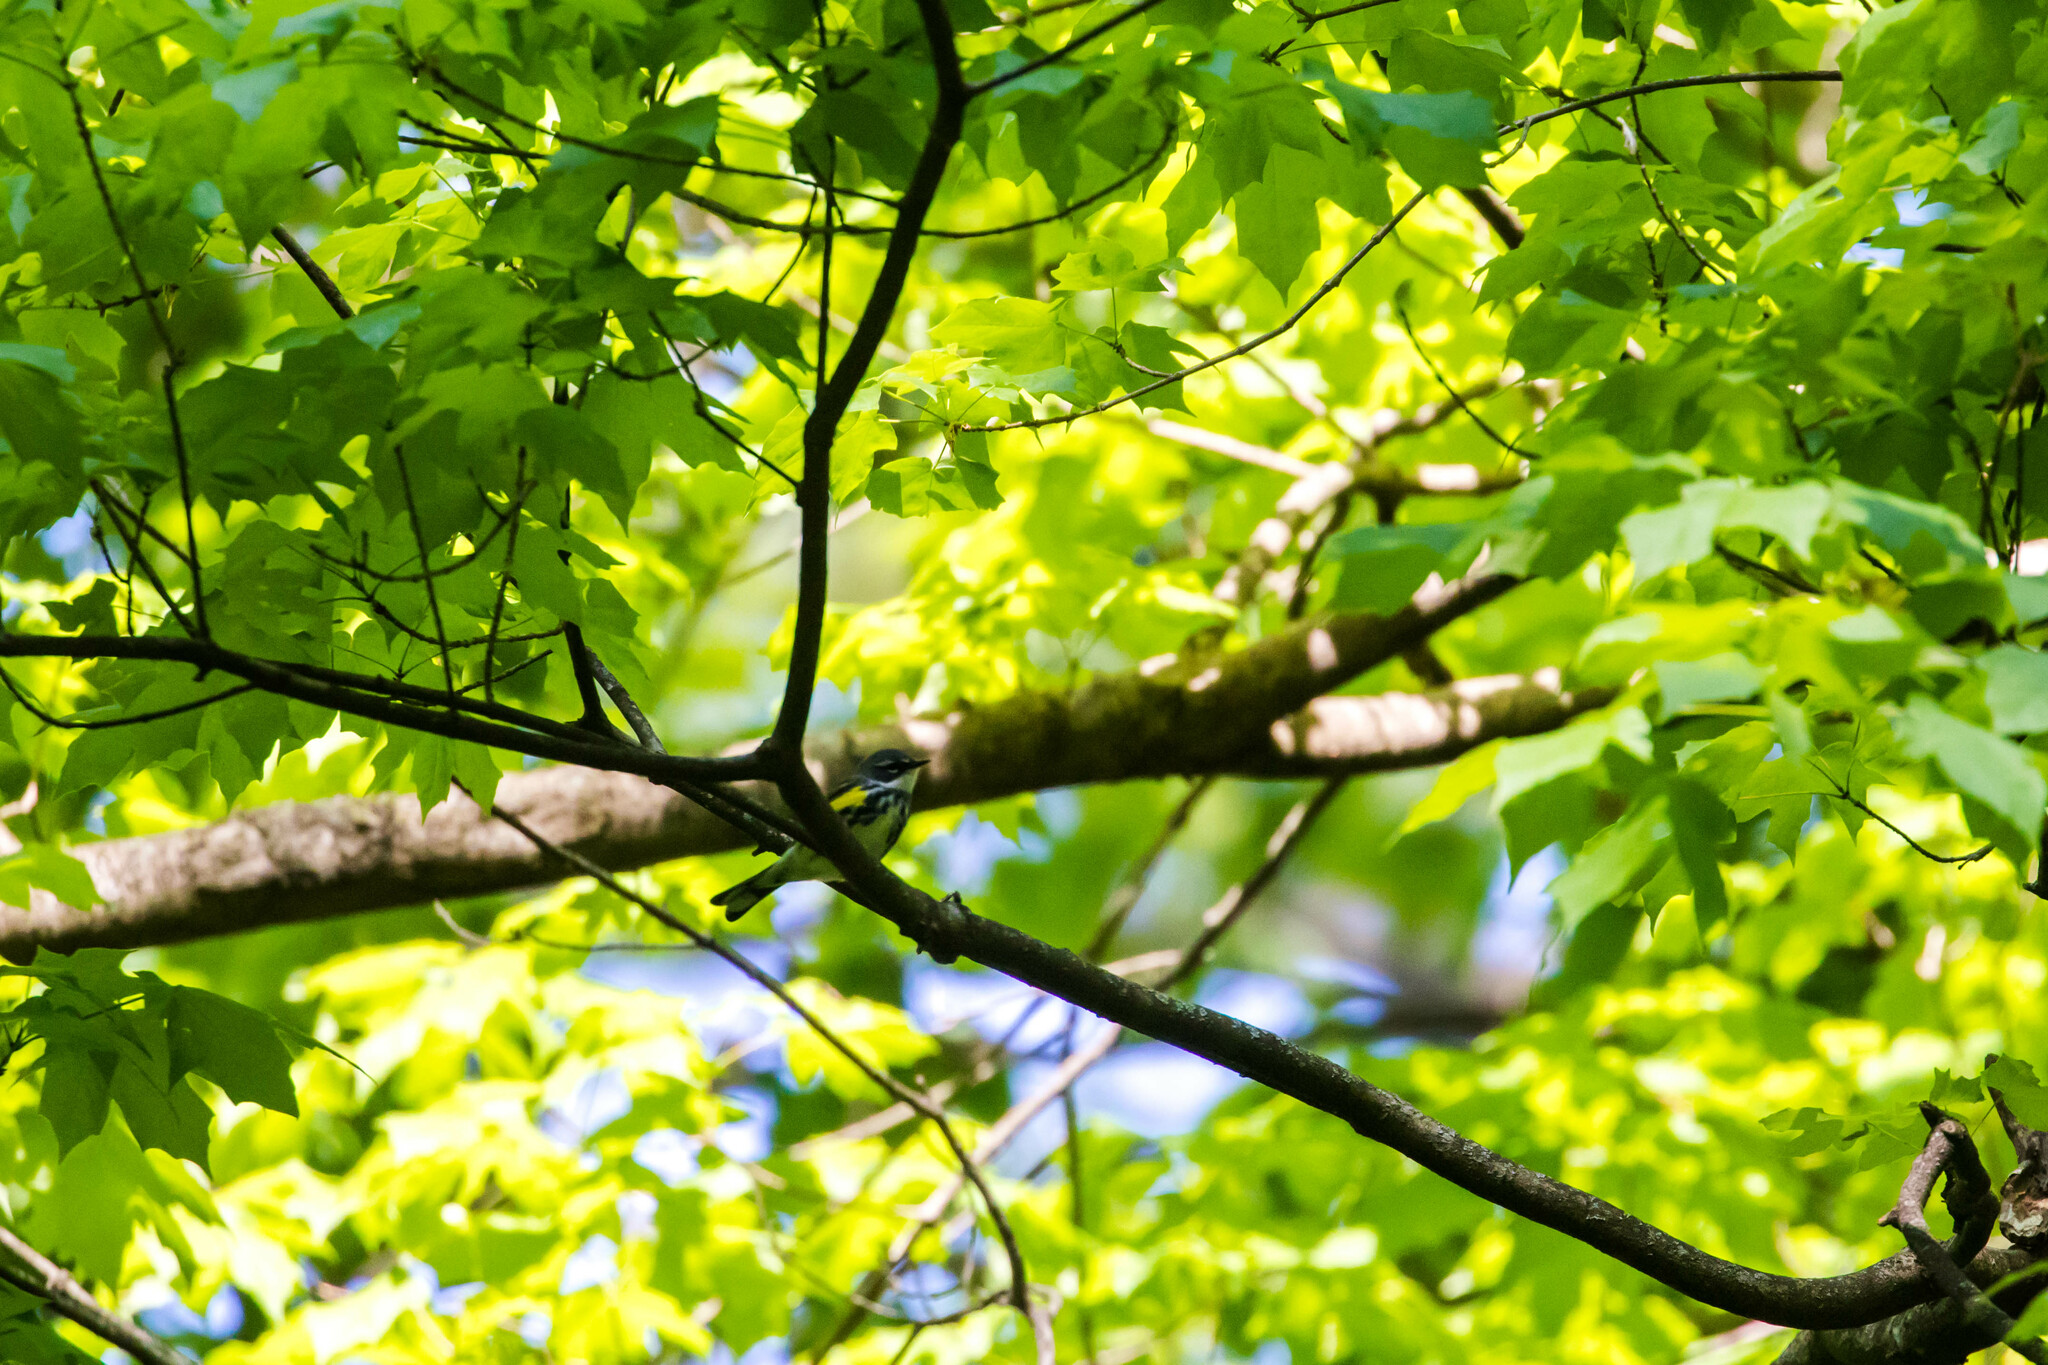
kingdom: Animalia
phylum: Chordata
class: Aves
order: Passeriformes
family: Parulidae
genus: Setophaga
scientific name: Setophaga coronata
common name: Myrtle warbler
